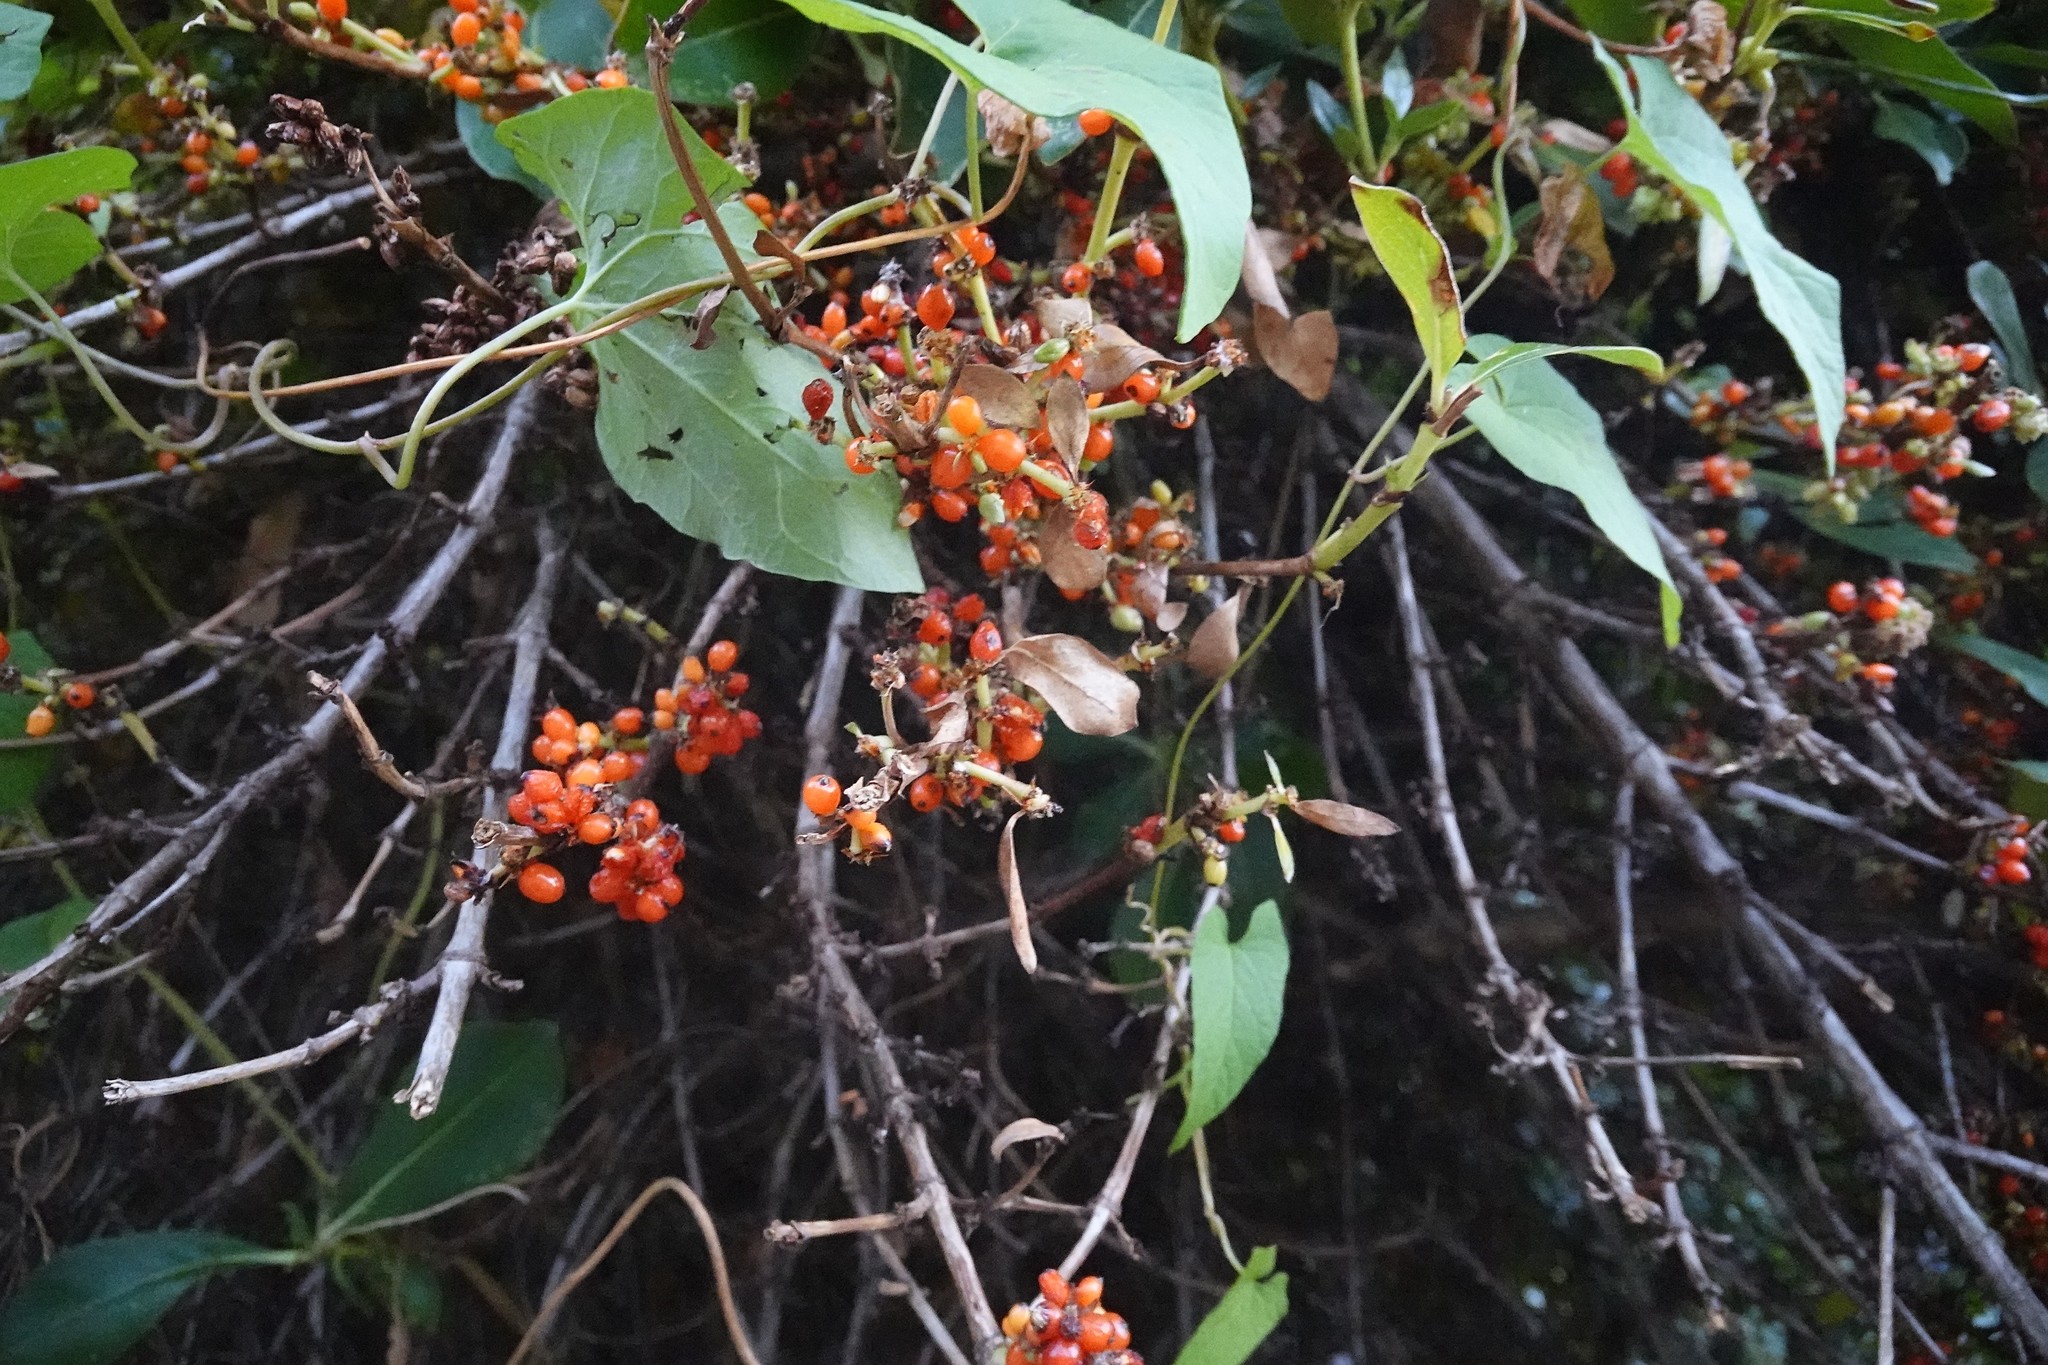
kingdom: Plantae
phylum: Tracheophyta
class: Magnoliopsida
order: Gentianales
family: Rubiaceae
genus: Coprosma
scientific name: Coprosma robusta
